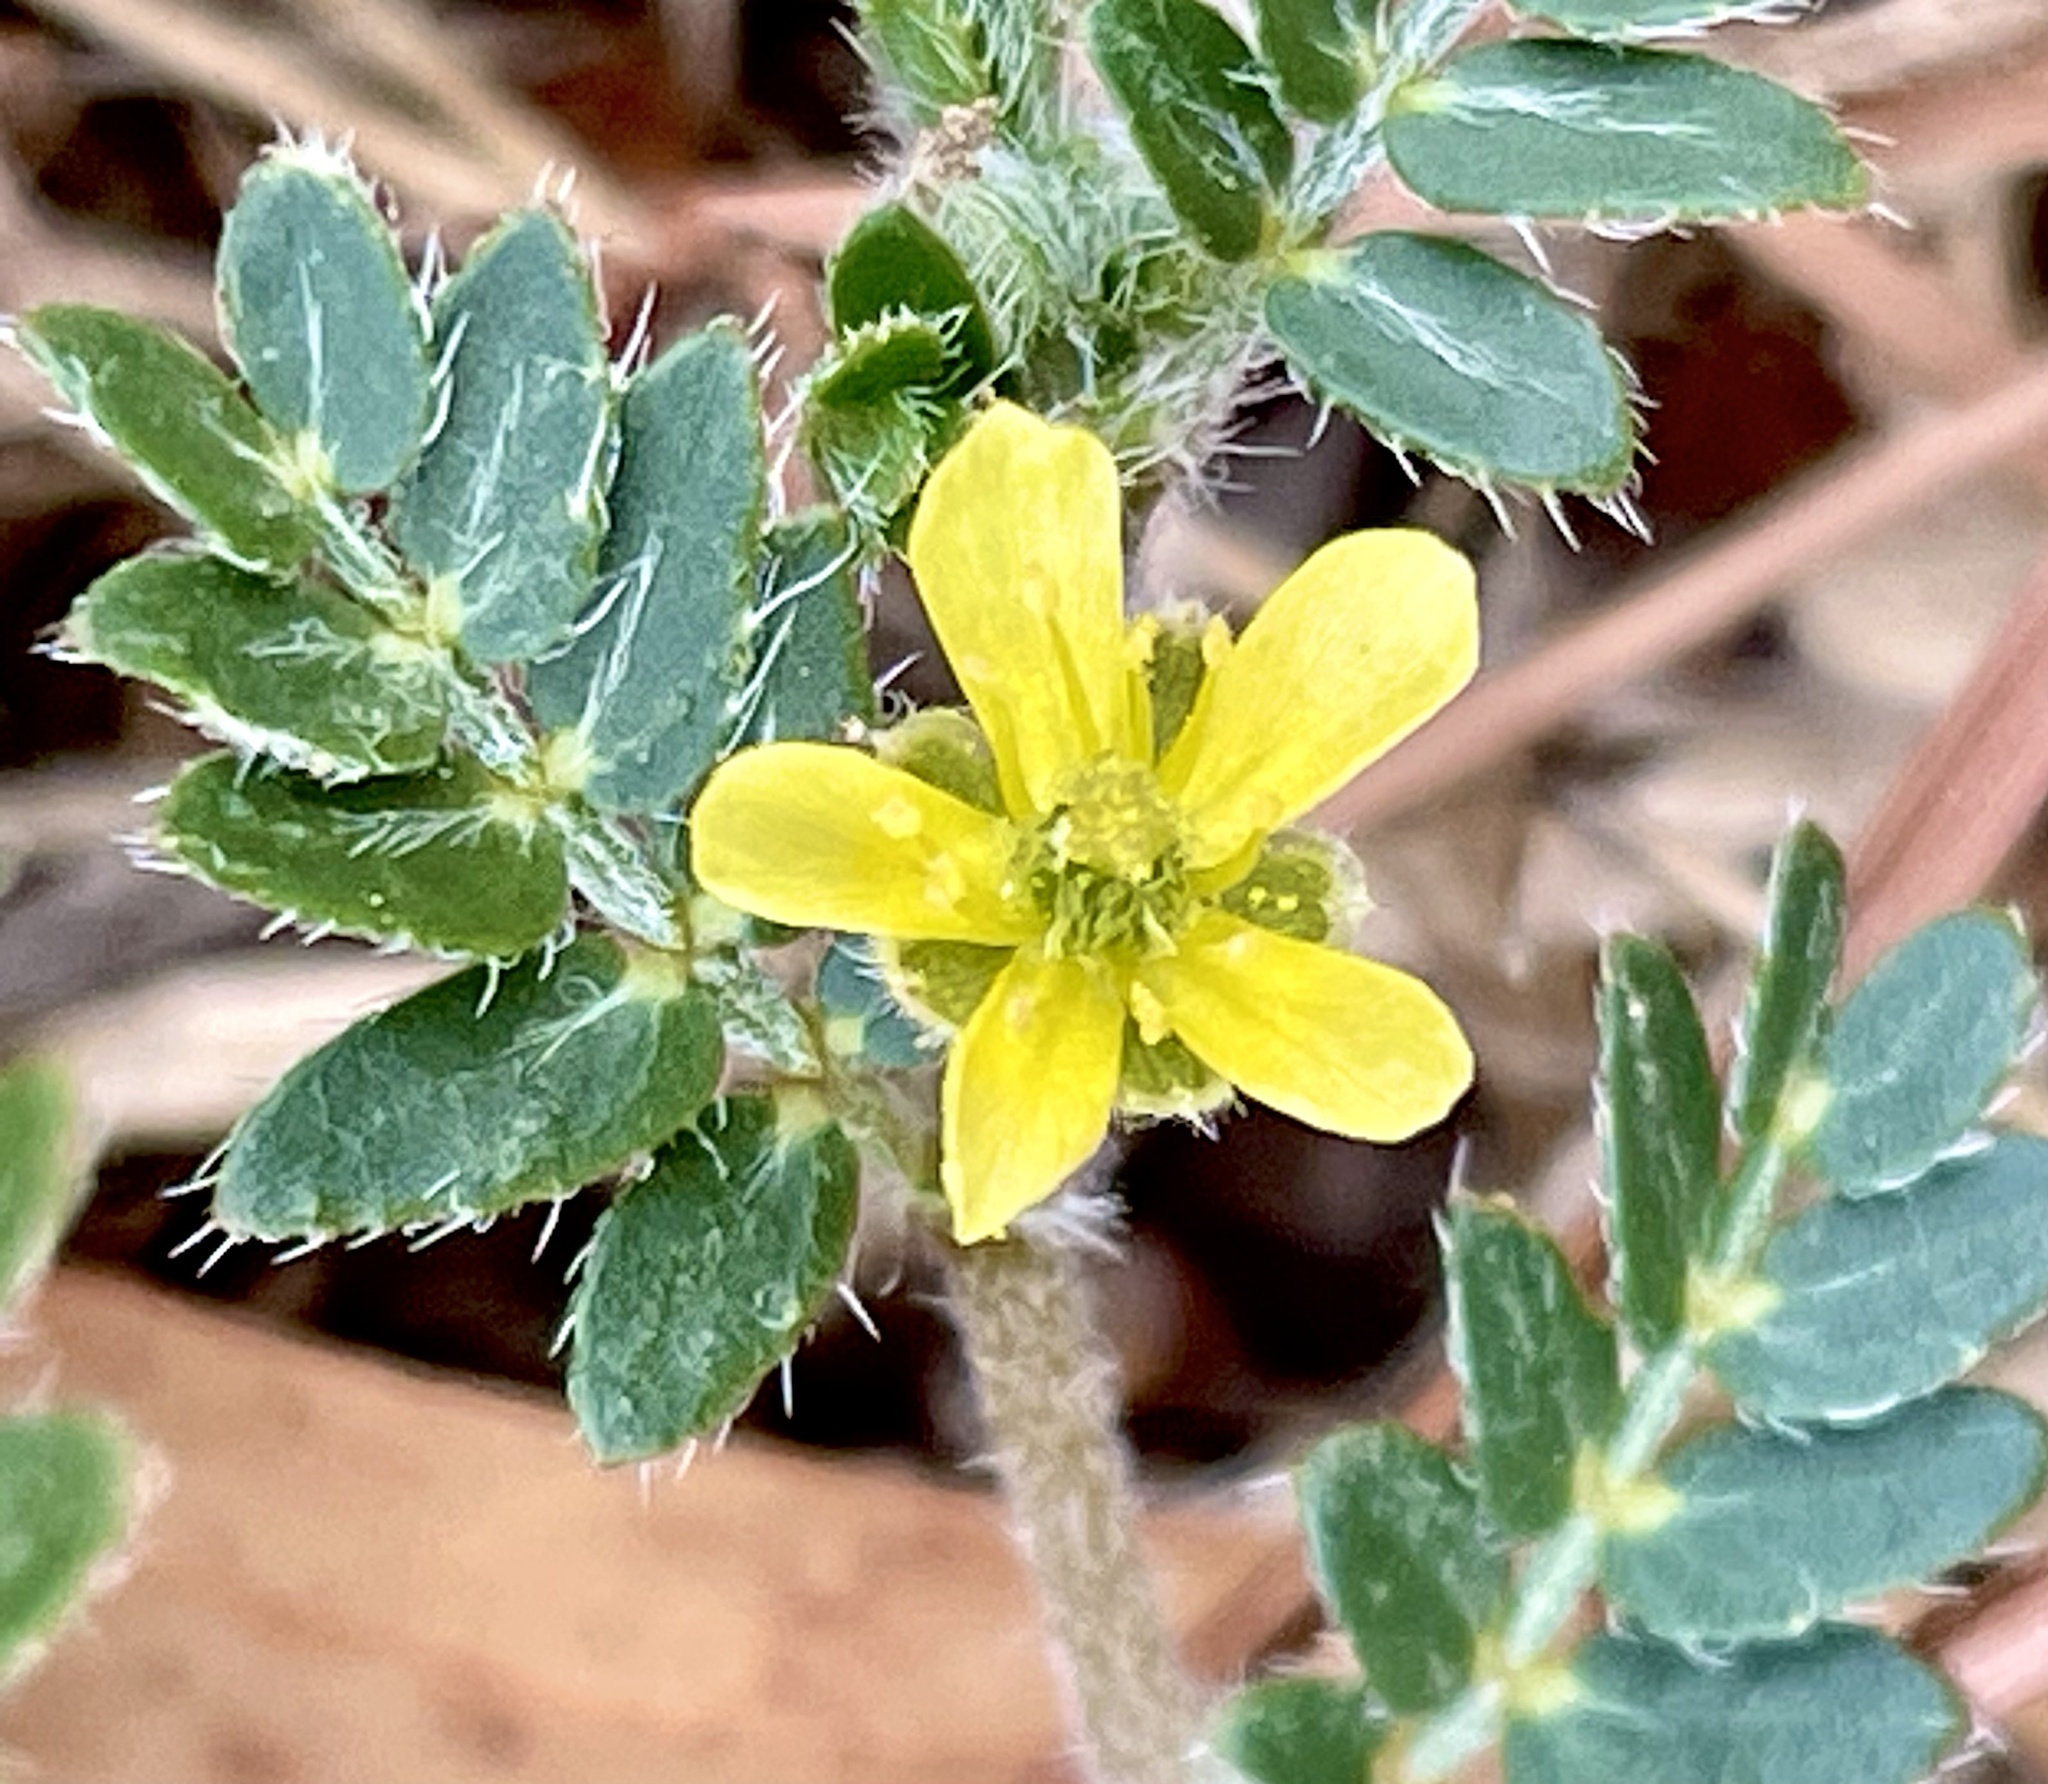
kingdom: Plantae
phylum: Tracheophyta
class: Magnoliopsida
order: Zygophyllales
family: Zygophyllaceae
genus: Tribulus
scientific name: Tribulus terrestris
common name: Puncturevine
